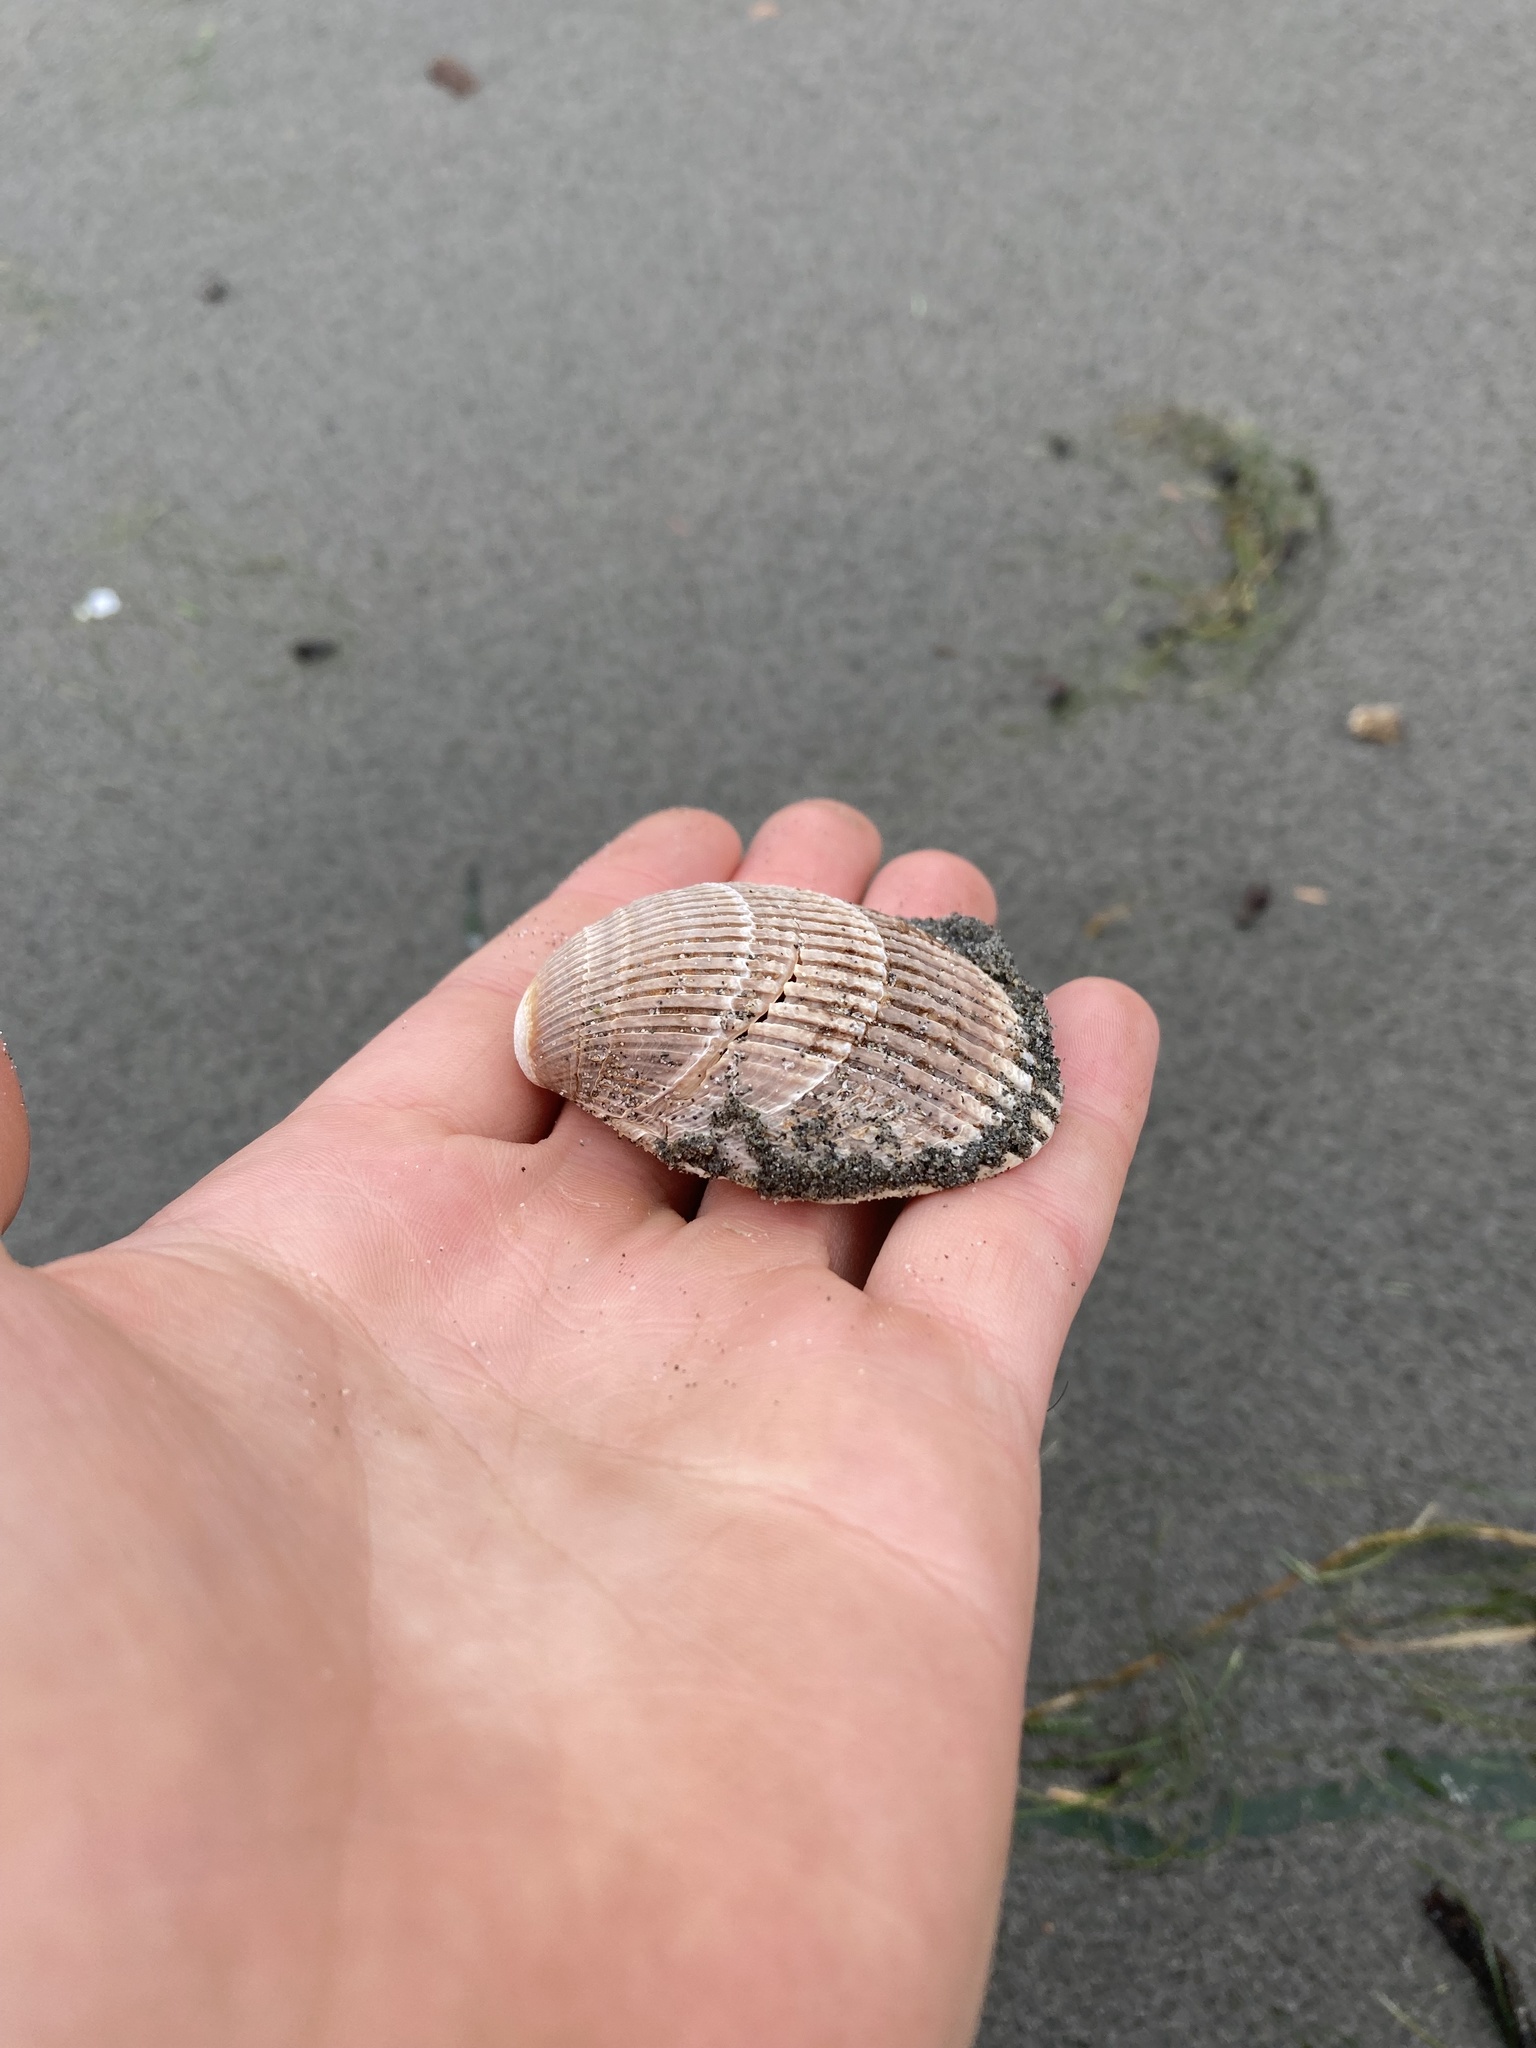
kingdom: Animalia
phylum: Mollusca
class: Bivalvia
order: Cardiida
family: Cardiidae
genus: Clinocardium
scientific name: Clinocardium nuttallii
